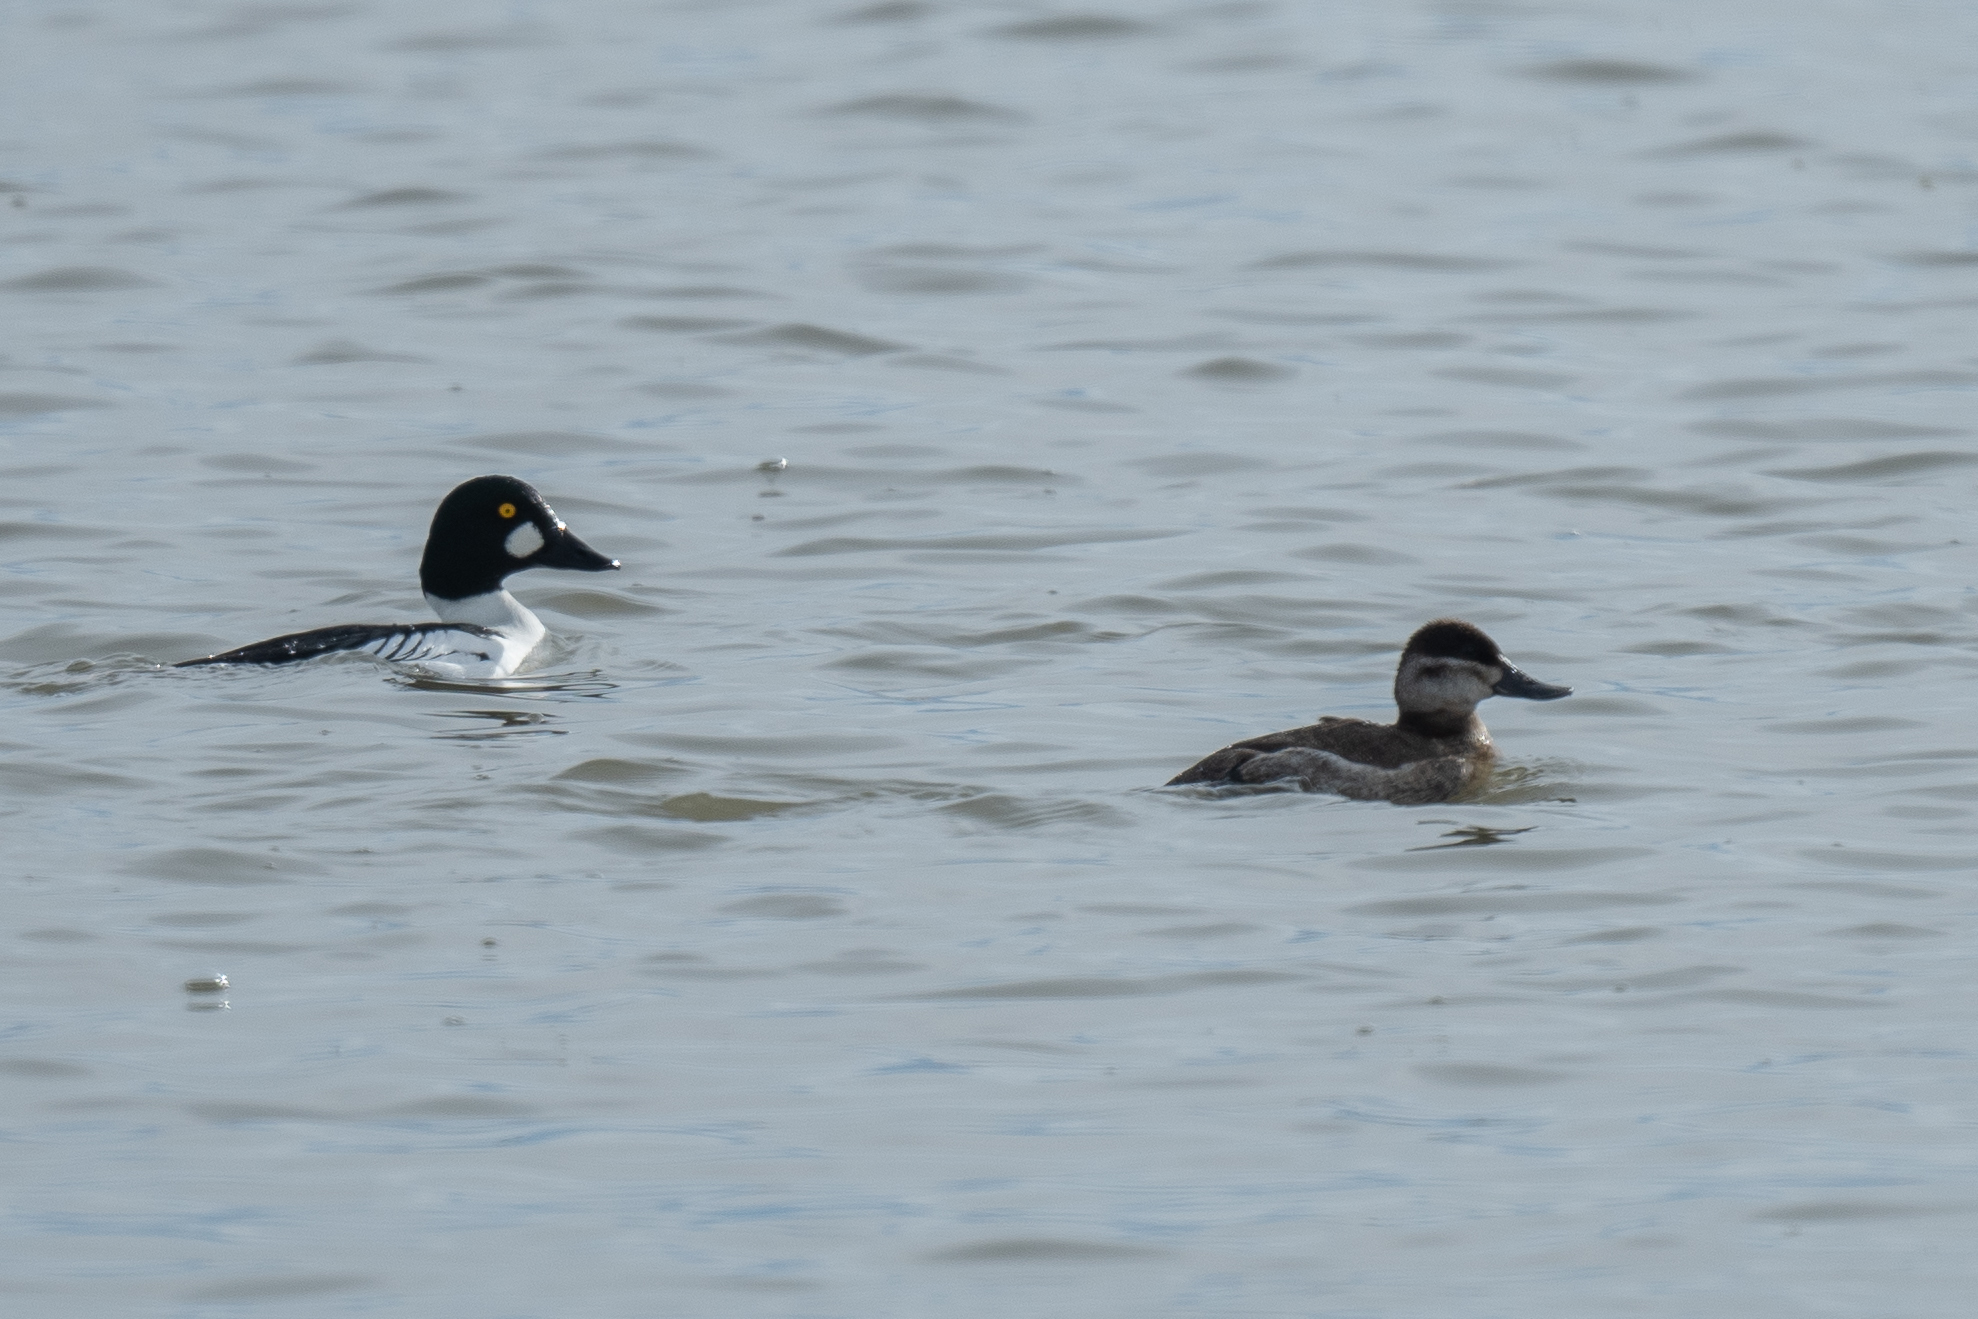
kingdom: Animalia
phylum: Chordata
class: Aves
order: Anseriformes
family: Anatidae
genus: Oxyura
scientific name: Oxyura jamaicensis
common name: Ruddy duck
